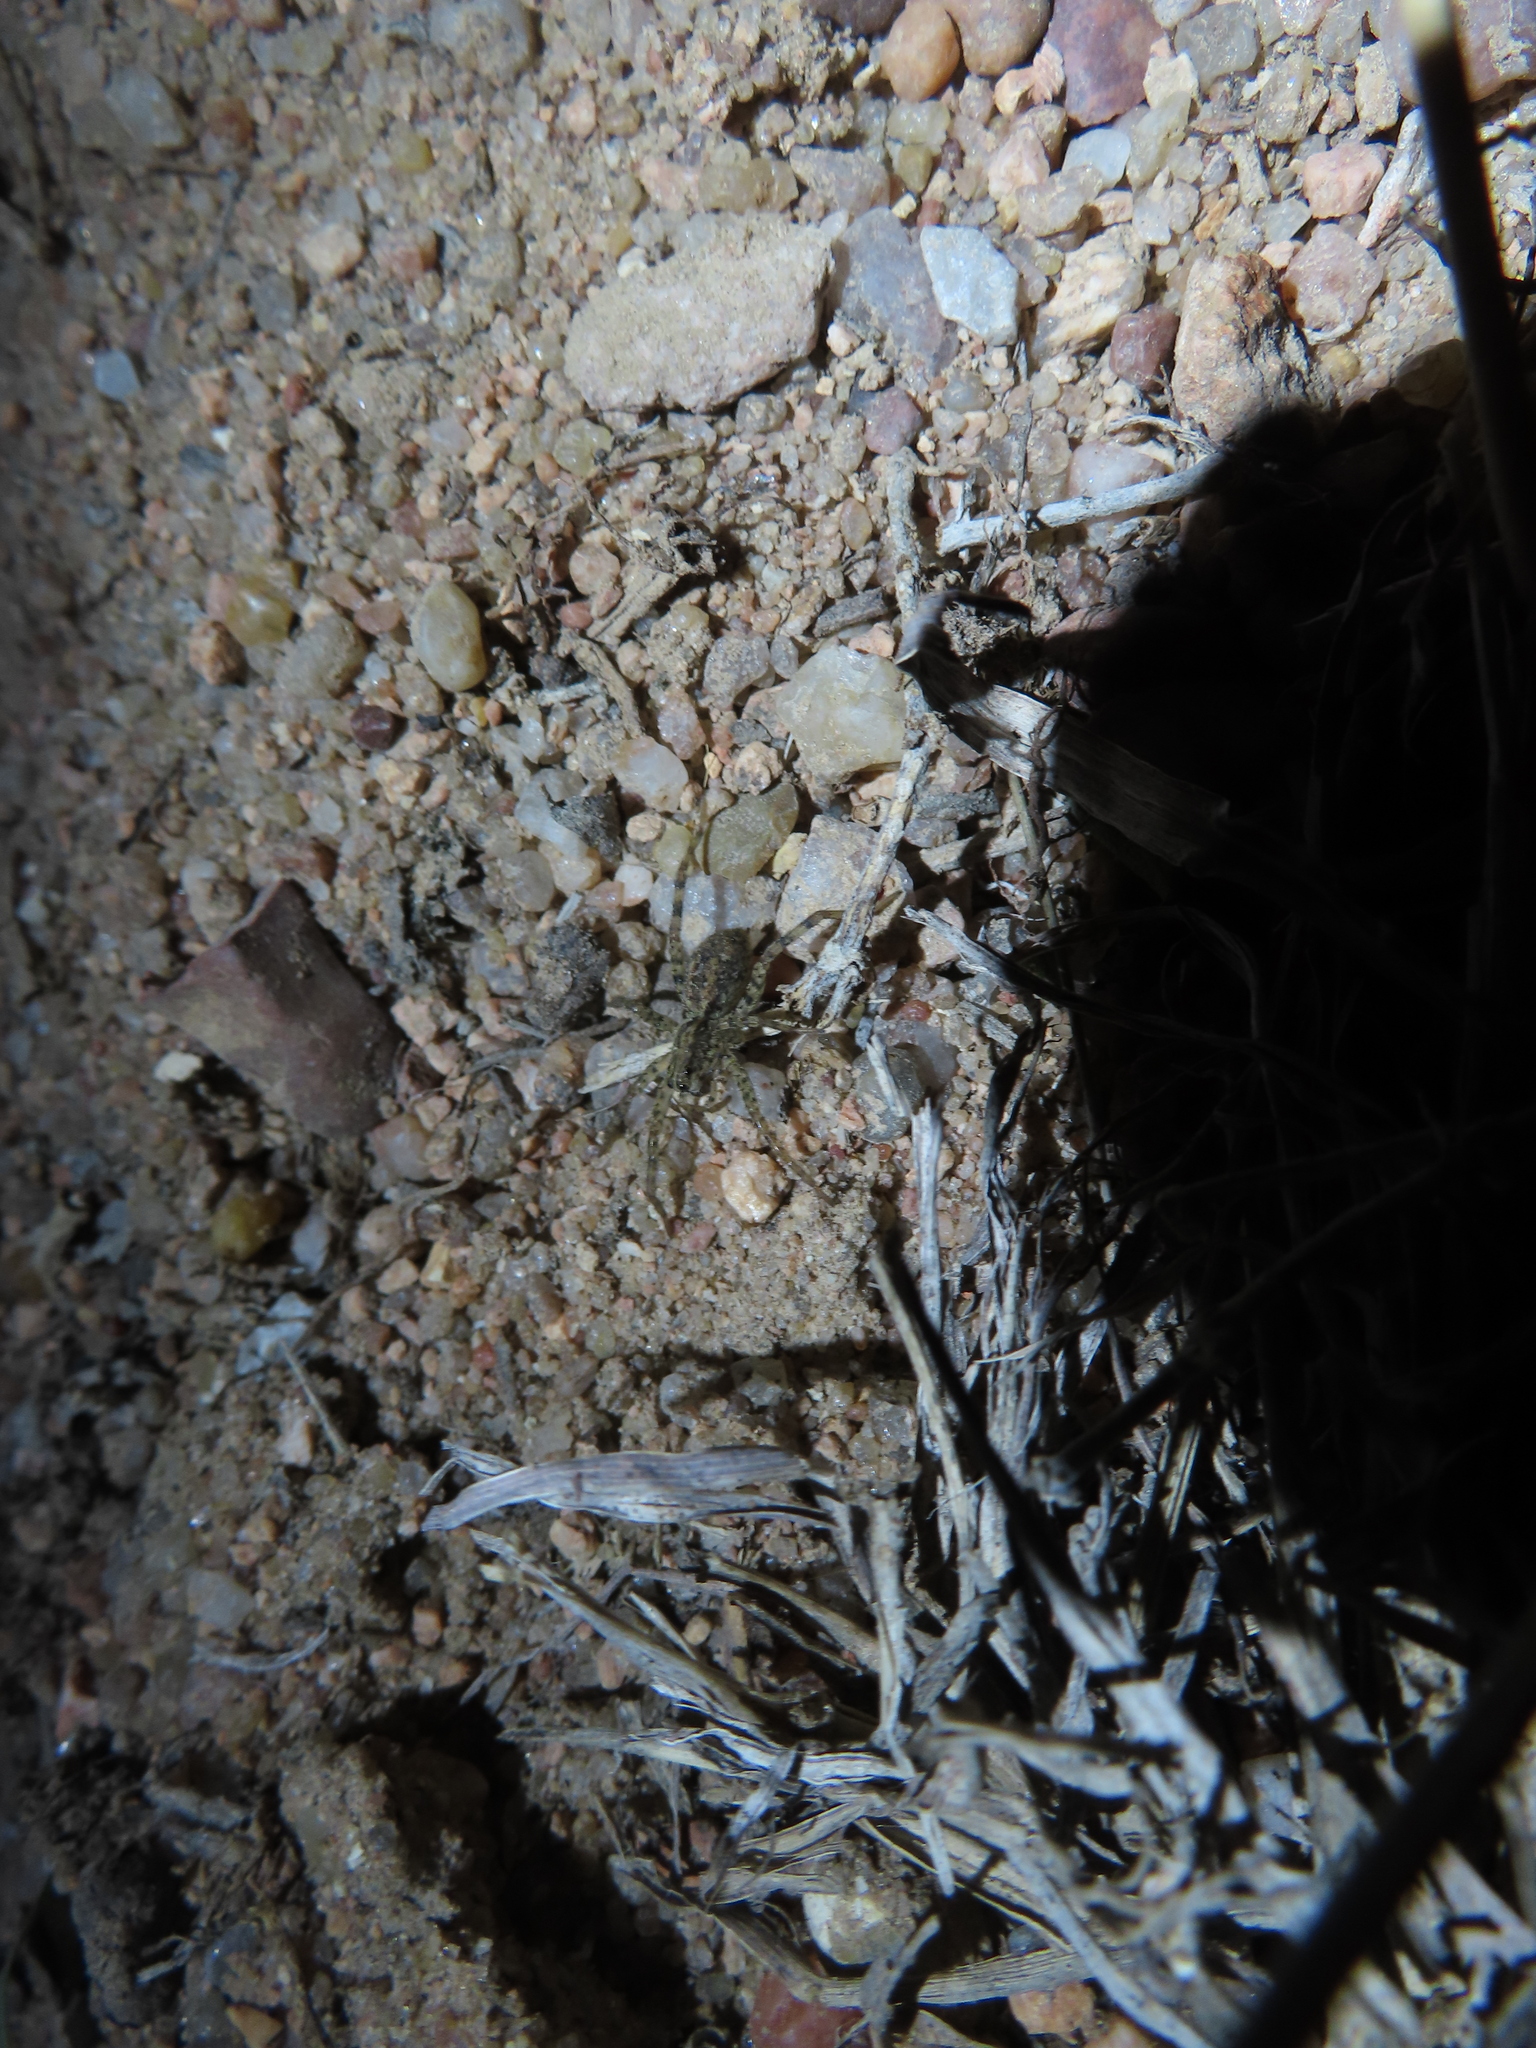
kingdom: Animalia
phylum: Arthropoda
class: Arachnida
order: Araneae
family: Lycosidae
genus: Hogna
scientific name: Hogna antelucana
